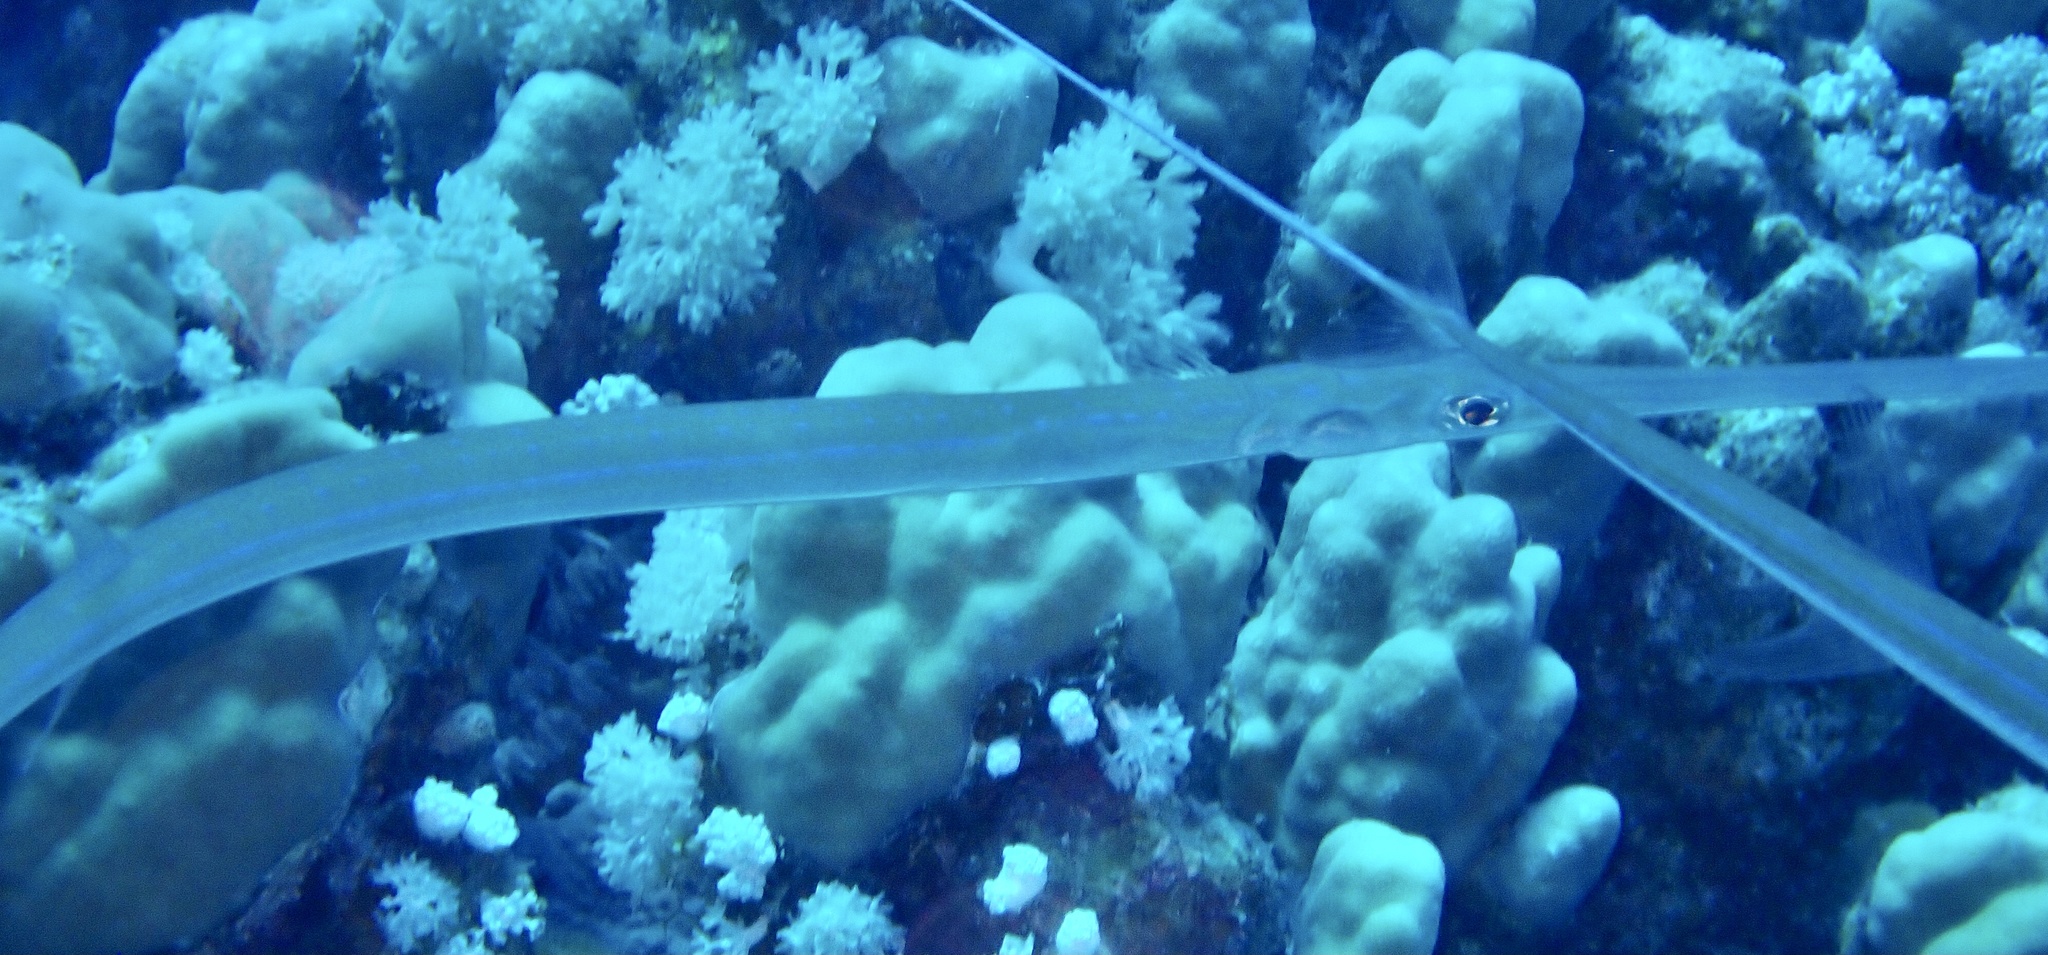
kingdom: Animalia
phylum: Chordata
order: Syngnathiformes
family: Fistulariidae
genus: Fistularia
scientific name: Fistularia commersonii
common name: Bluespotted cornetfish
